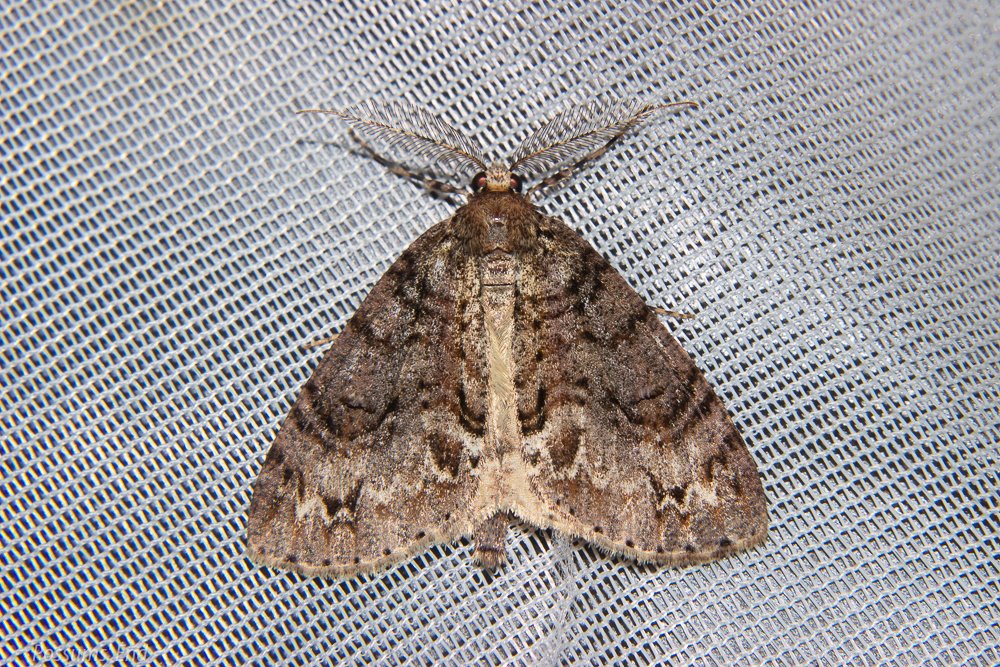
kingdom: Animalia
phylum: Arthropoda
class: Insecta
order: Lepidoptera
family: Geometridae
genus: Pseudocoremia
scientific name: Pseudocoremia suavis
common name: Common forest looper
